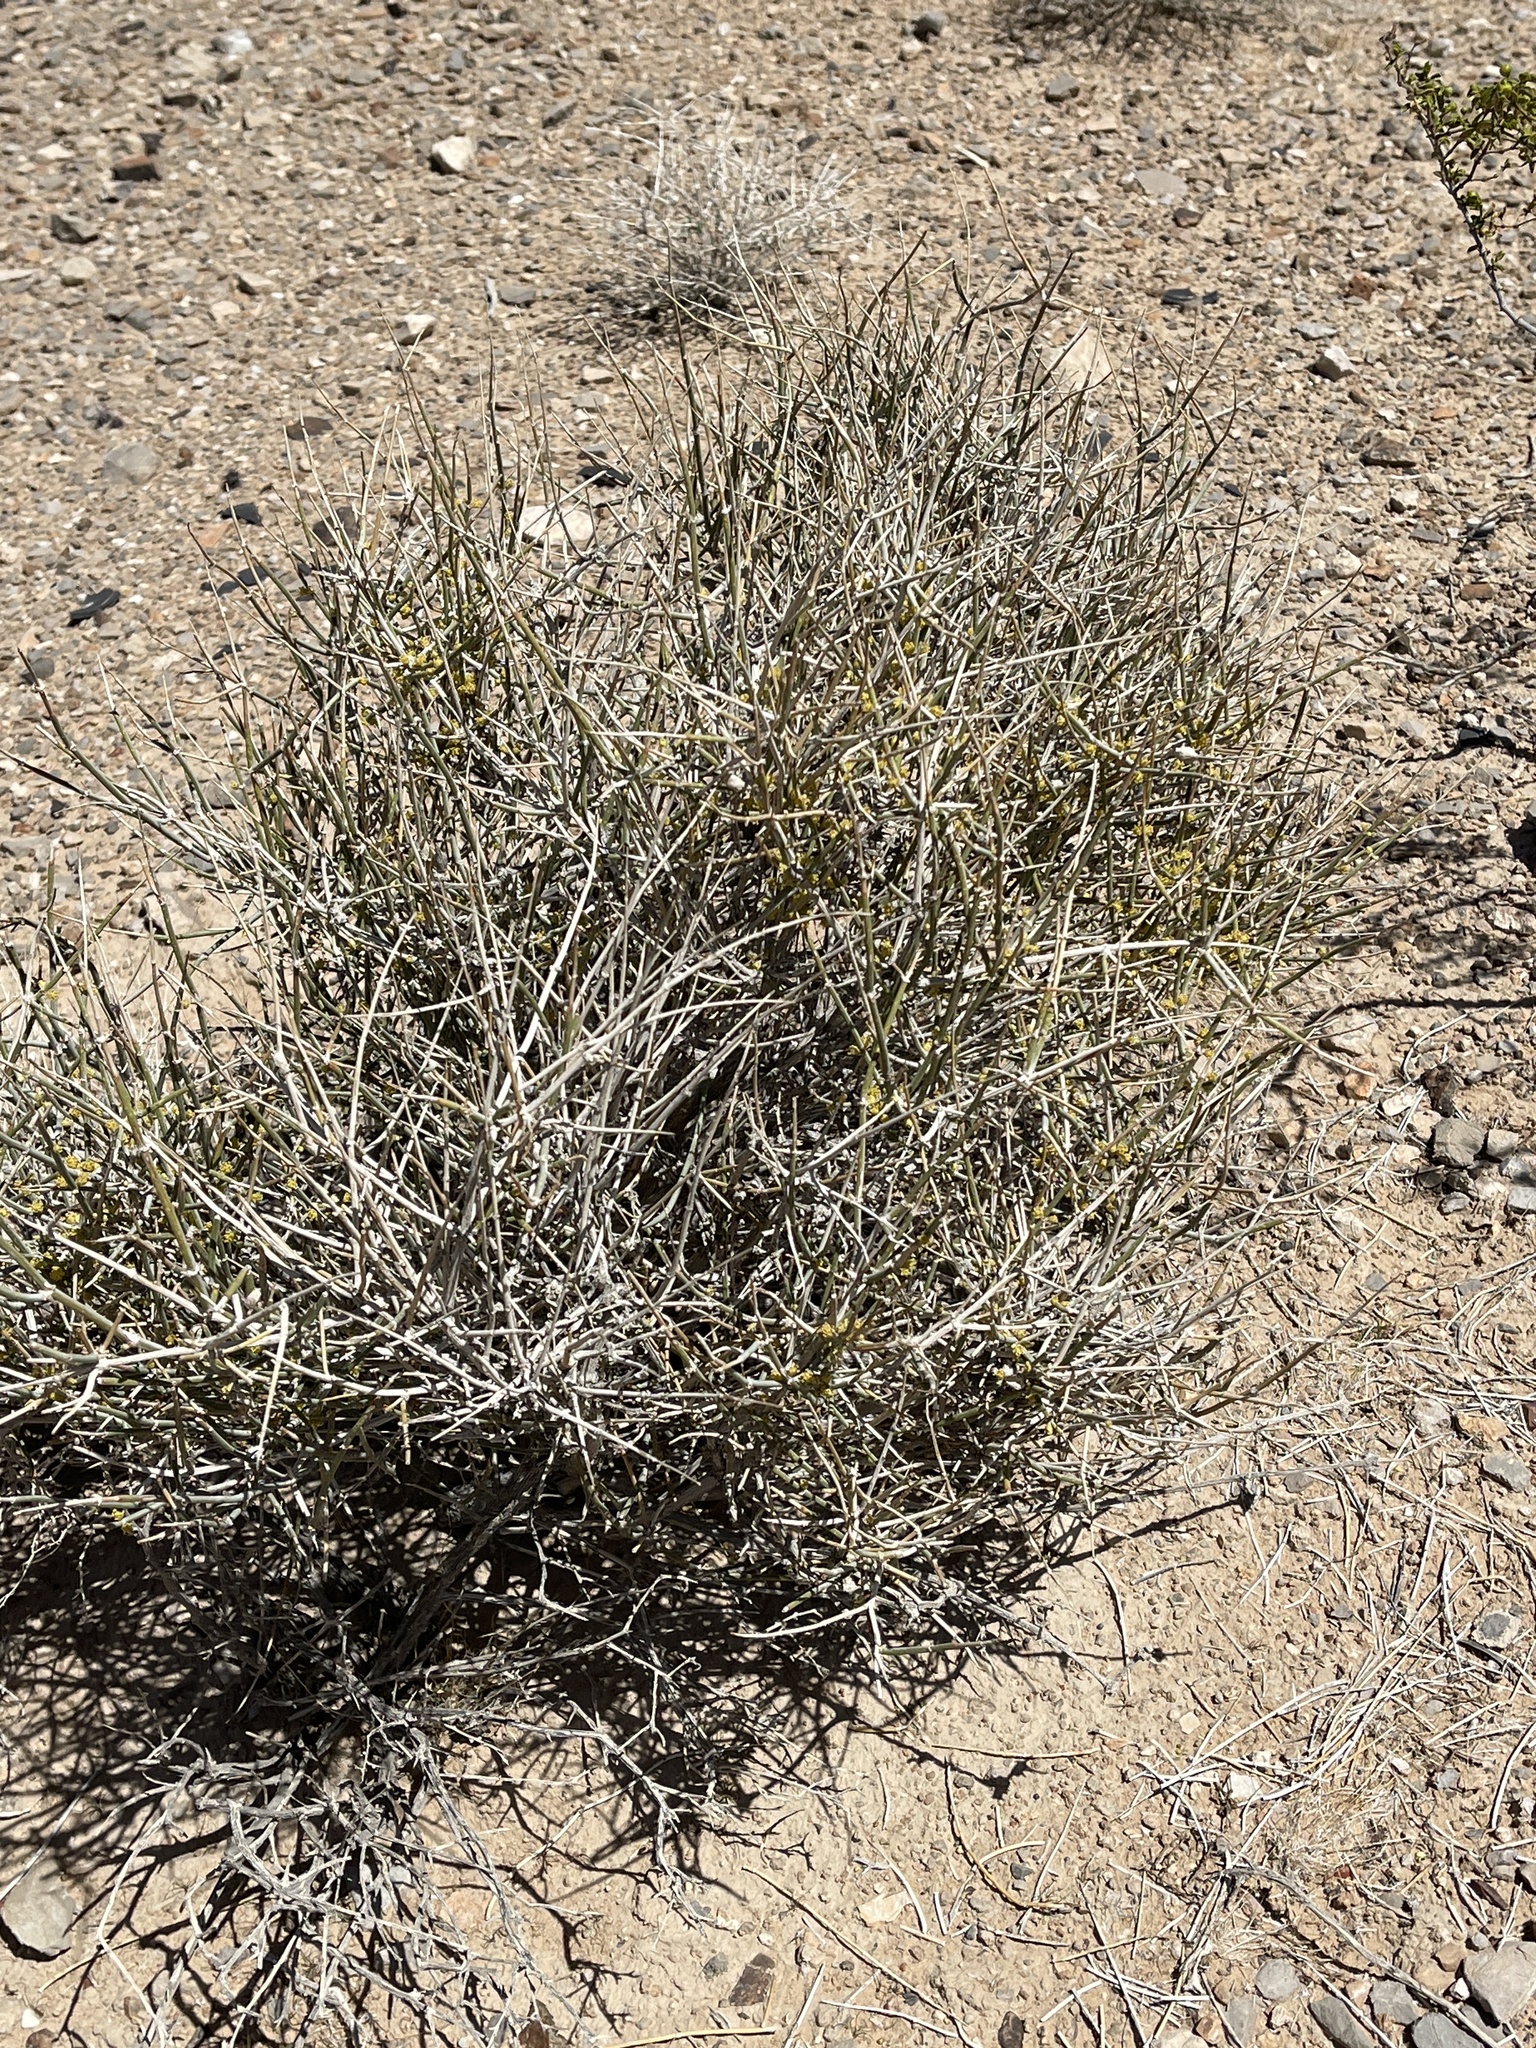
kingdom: Plantae
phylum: Tracheophyta
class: Gnetopsida
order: Ephedrales
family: Ephedraceae
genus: Ephedra
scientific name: Ephedra nevadensis
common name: Gray ephedra
